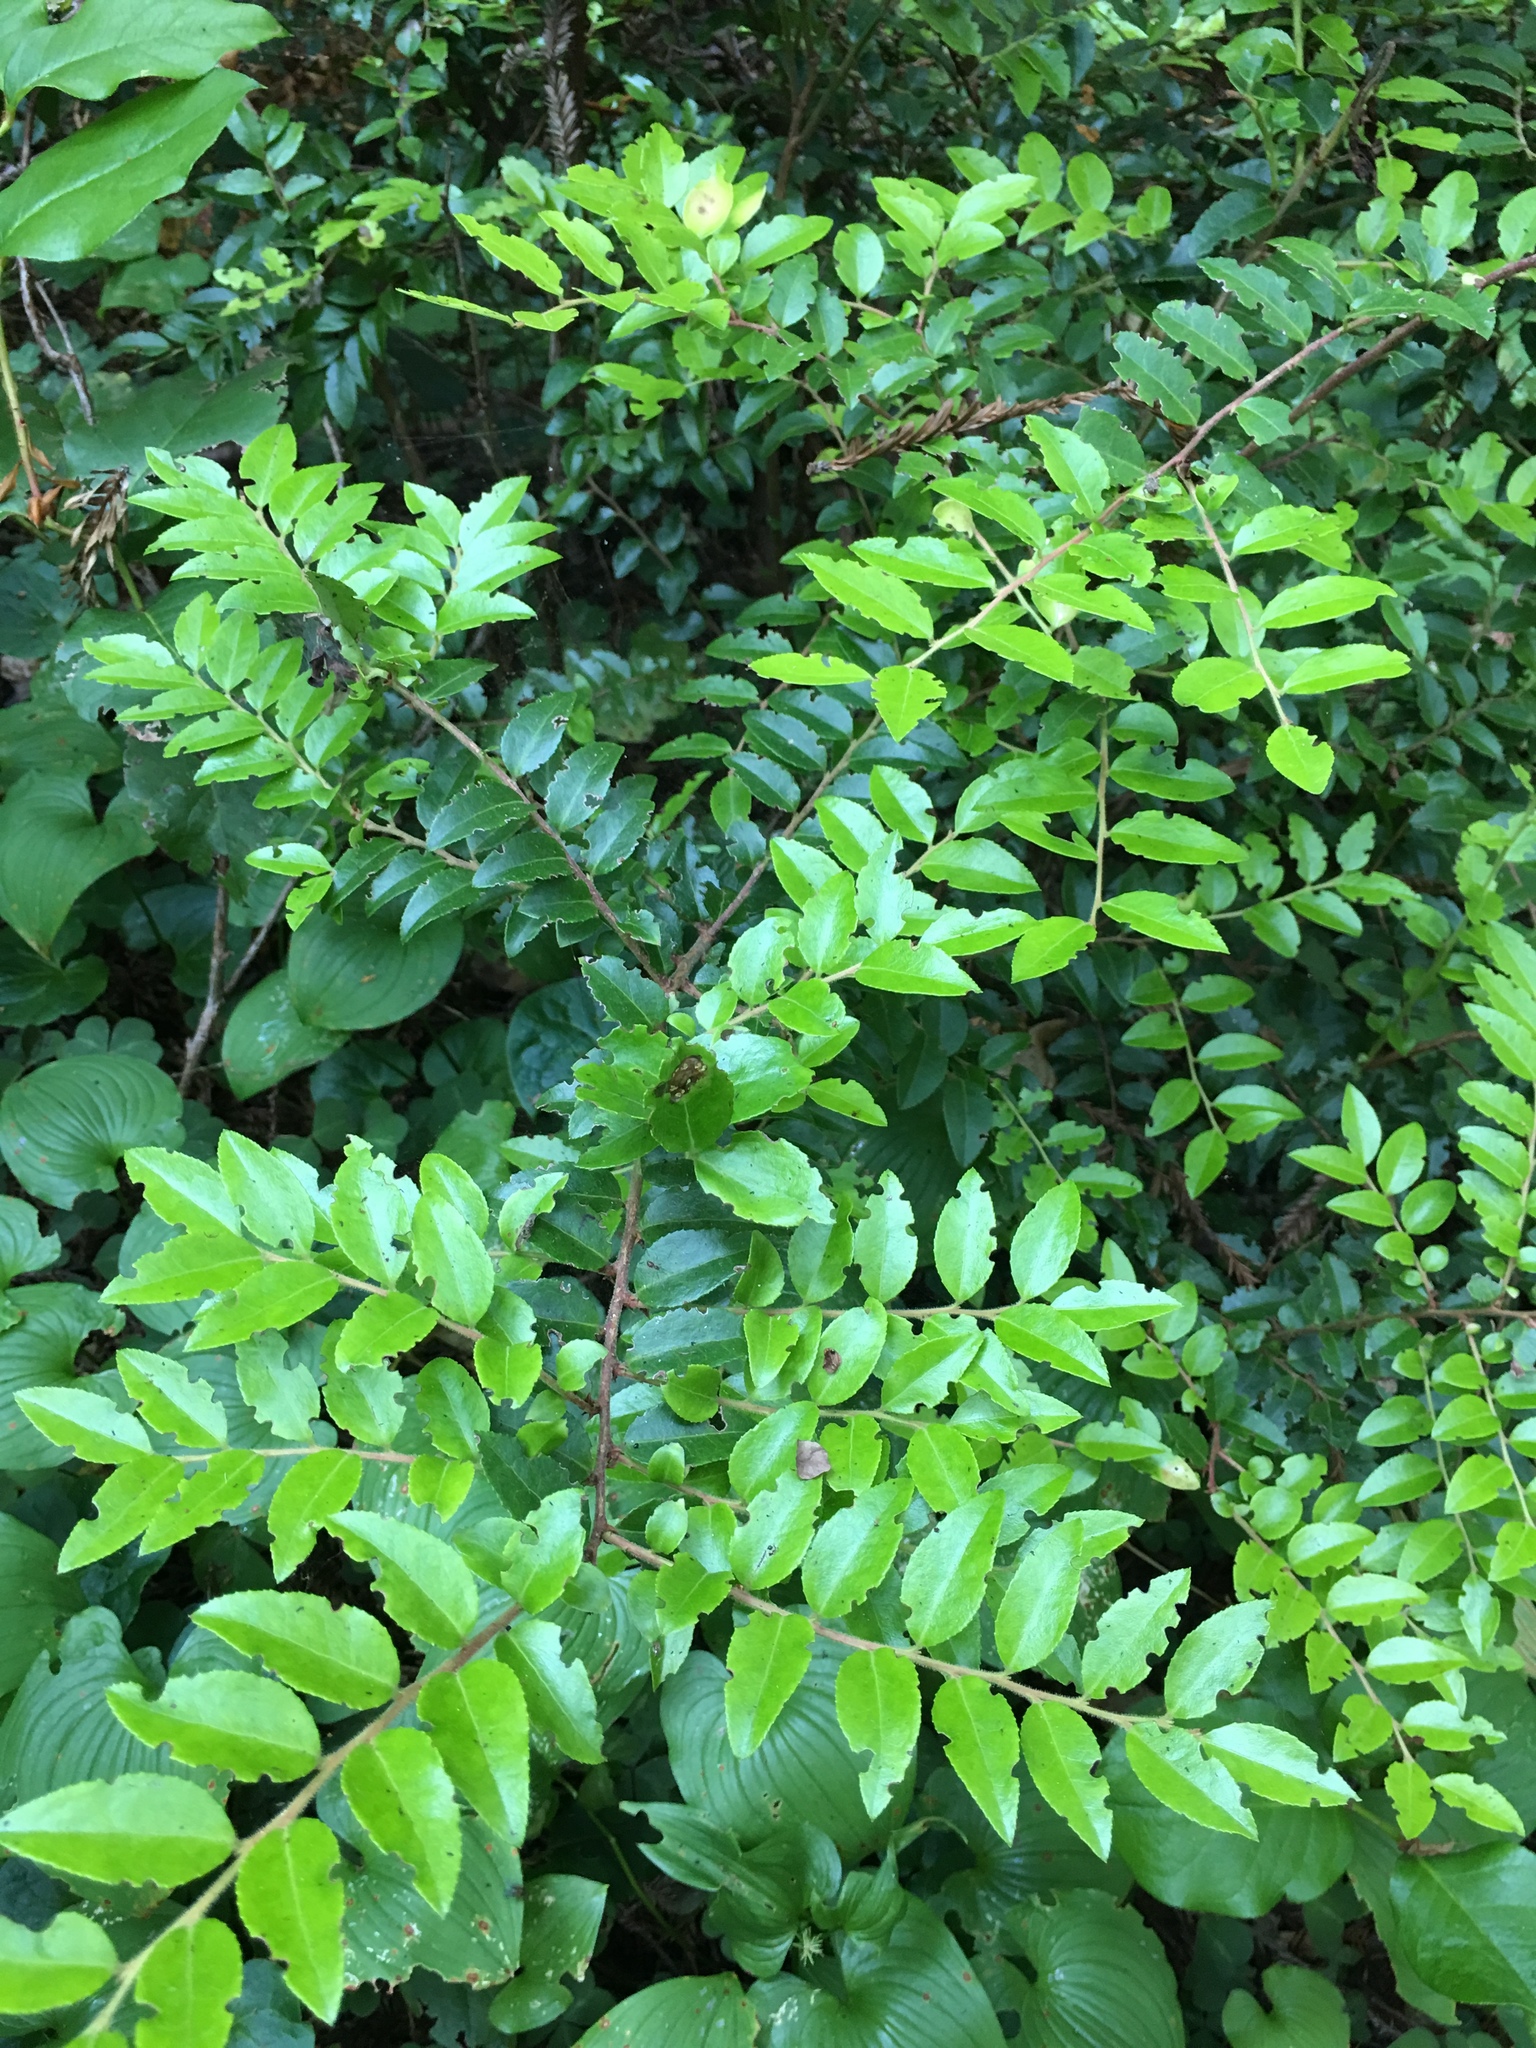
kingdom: Plantae
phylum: Tracheophyta
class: Magnoliopsida
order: Ericales
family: Ericaceae
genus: Vaccinium
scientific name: Vaccinium ovatum
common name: California-huckleberry
